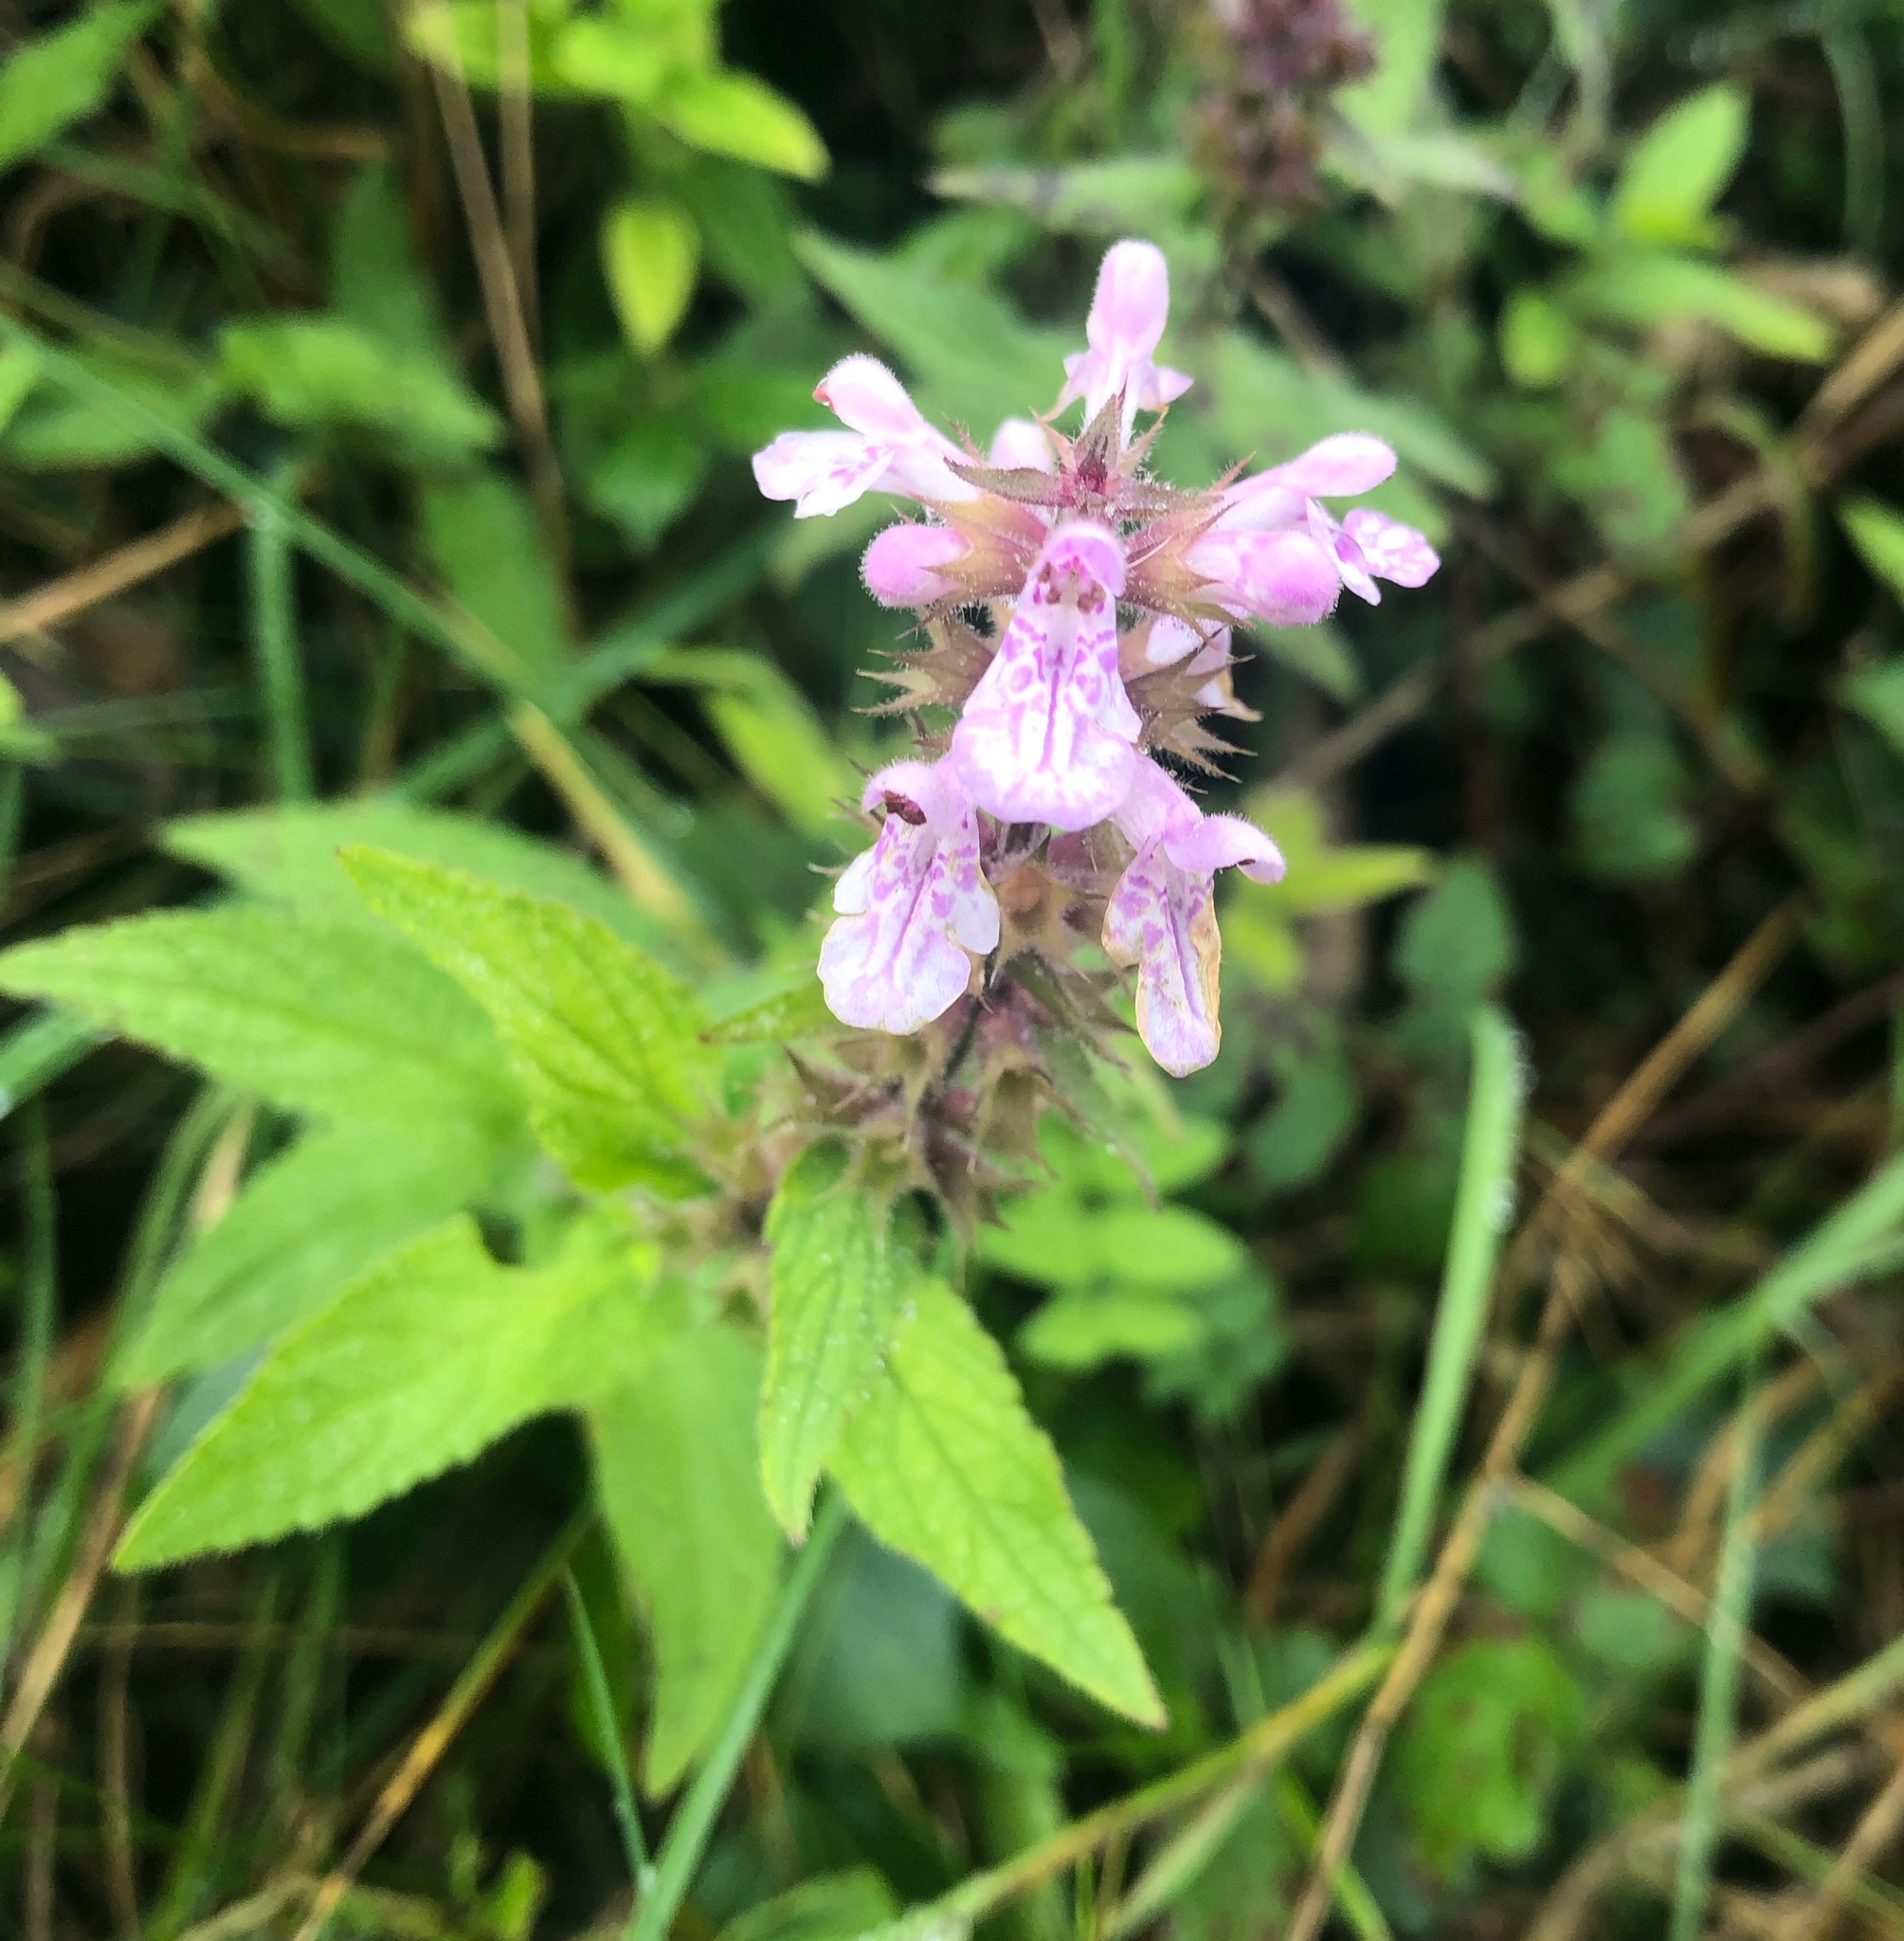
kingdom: Plantae
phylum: Tracheophyta
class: Magnoliopsida
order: Lamiales
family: Lamiaceae
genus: Stachys
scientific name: Stachys palustris
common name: Marsh woundwort
